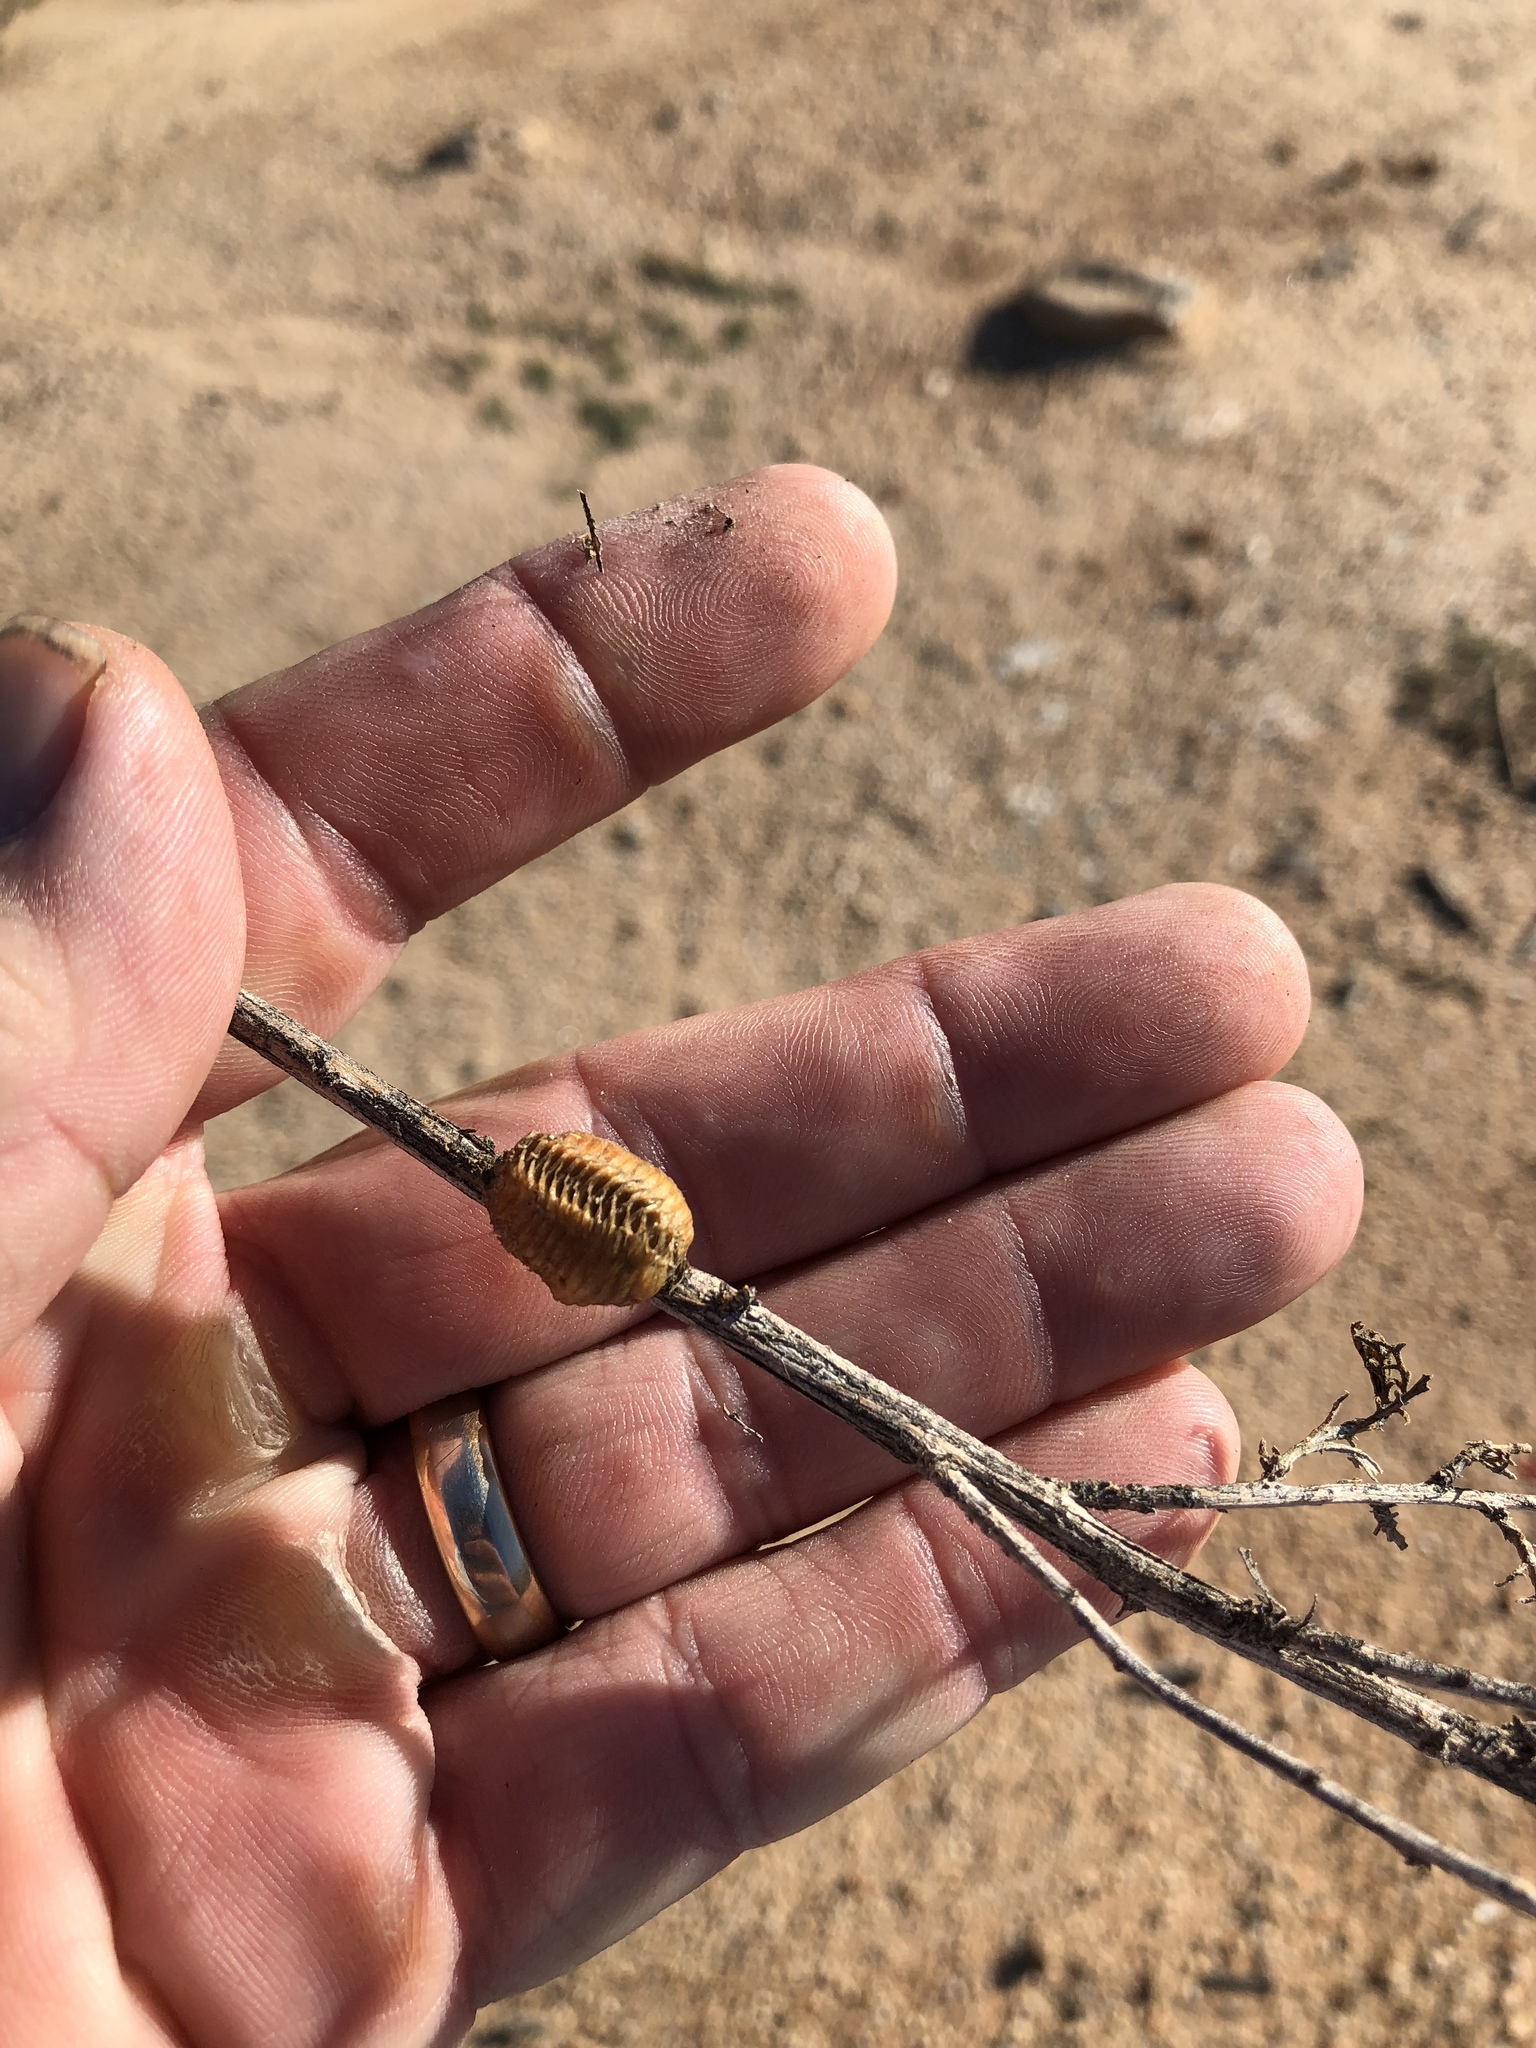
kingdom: Animalia
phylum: Arthropoda
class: Insecta
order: Mantodea
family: Mantidae
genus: Stagmomantis
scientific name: Stagmomantis limbata
